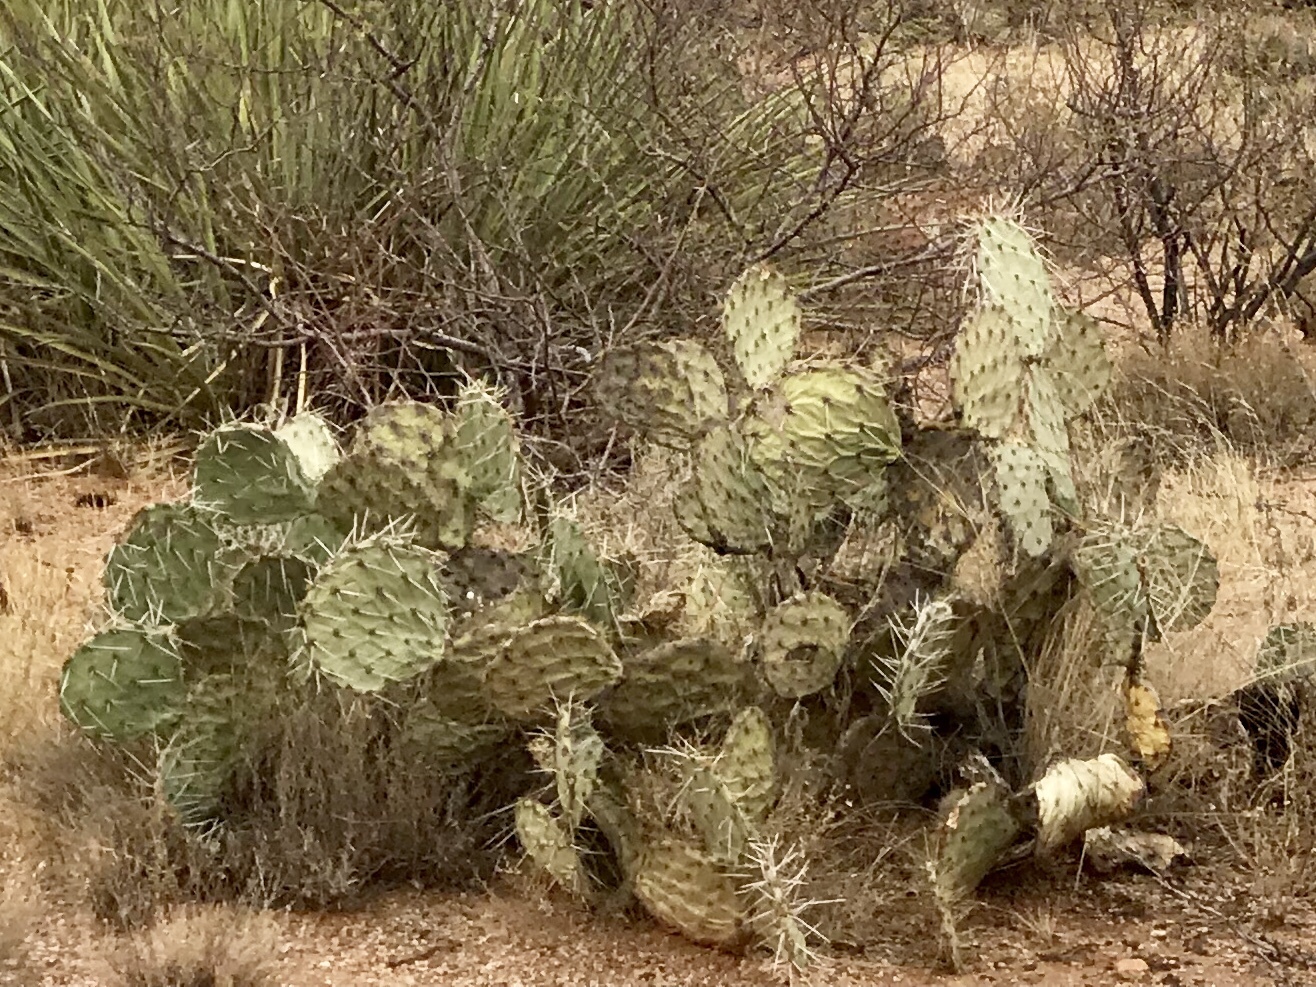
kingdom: Plantae
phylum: Tracheophyta
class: Magnoliopsida
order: Caryophyllales
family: Cactaceae
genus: Opuntia
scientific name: Opuntia engelmannii
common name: Cactus-apple
